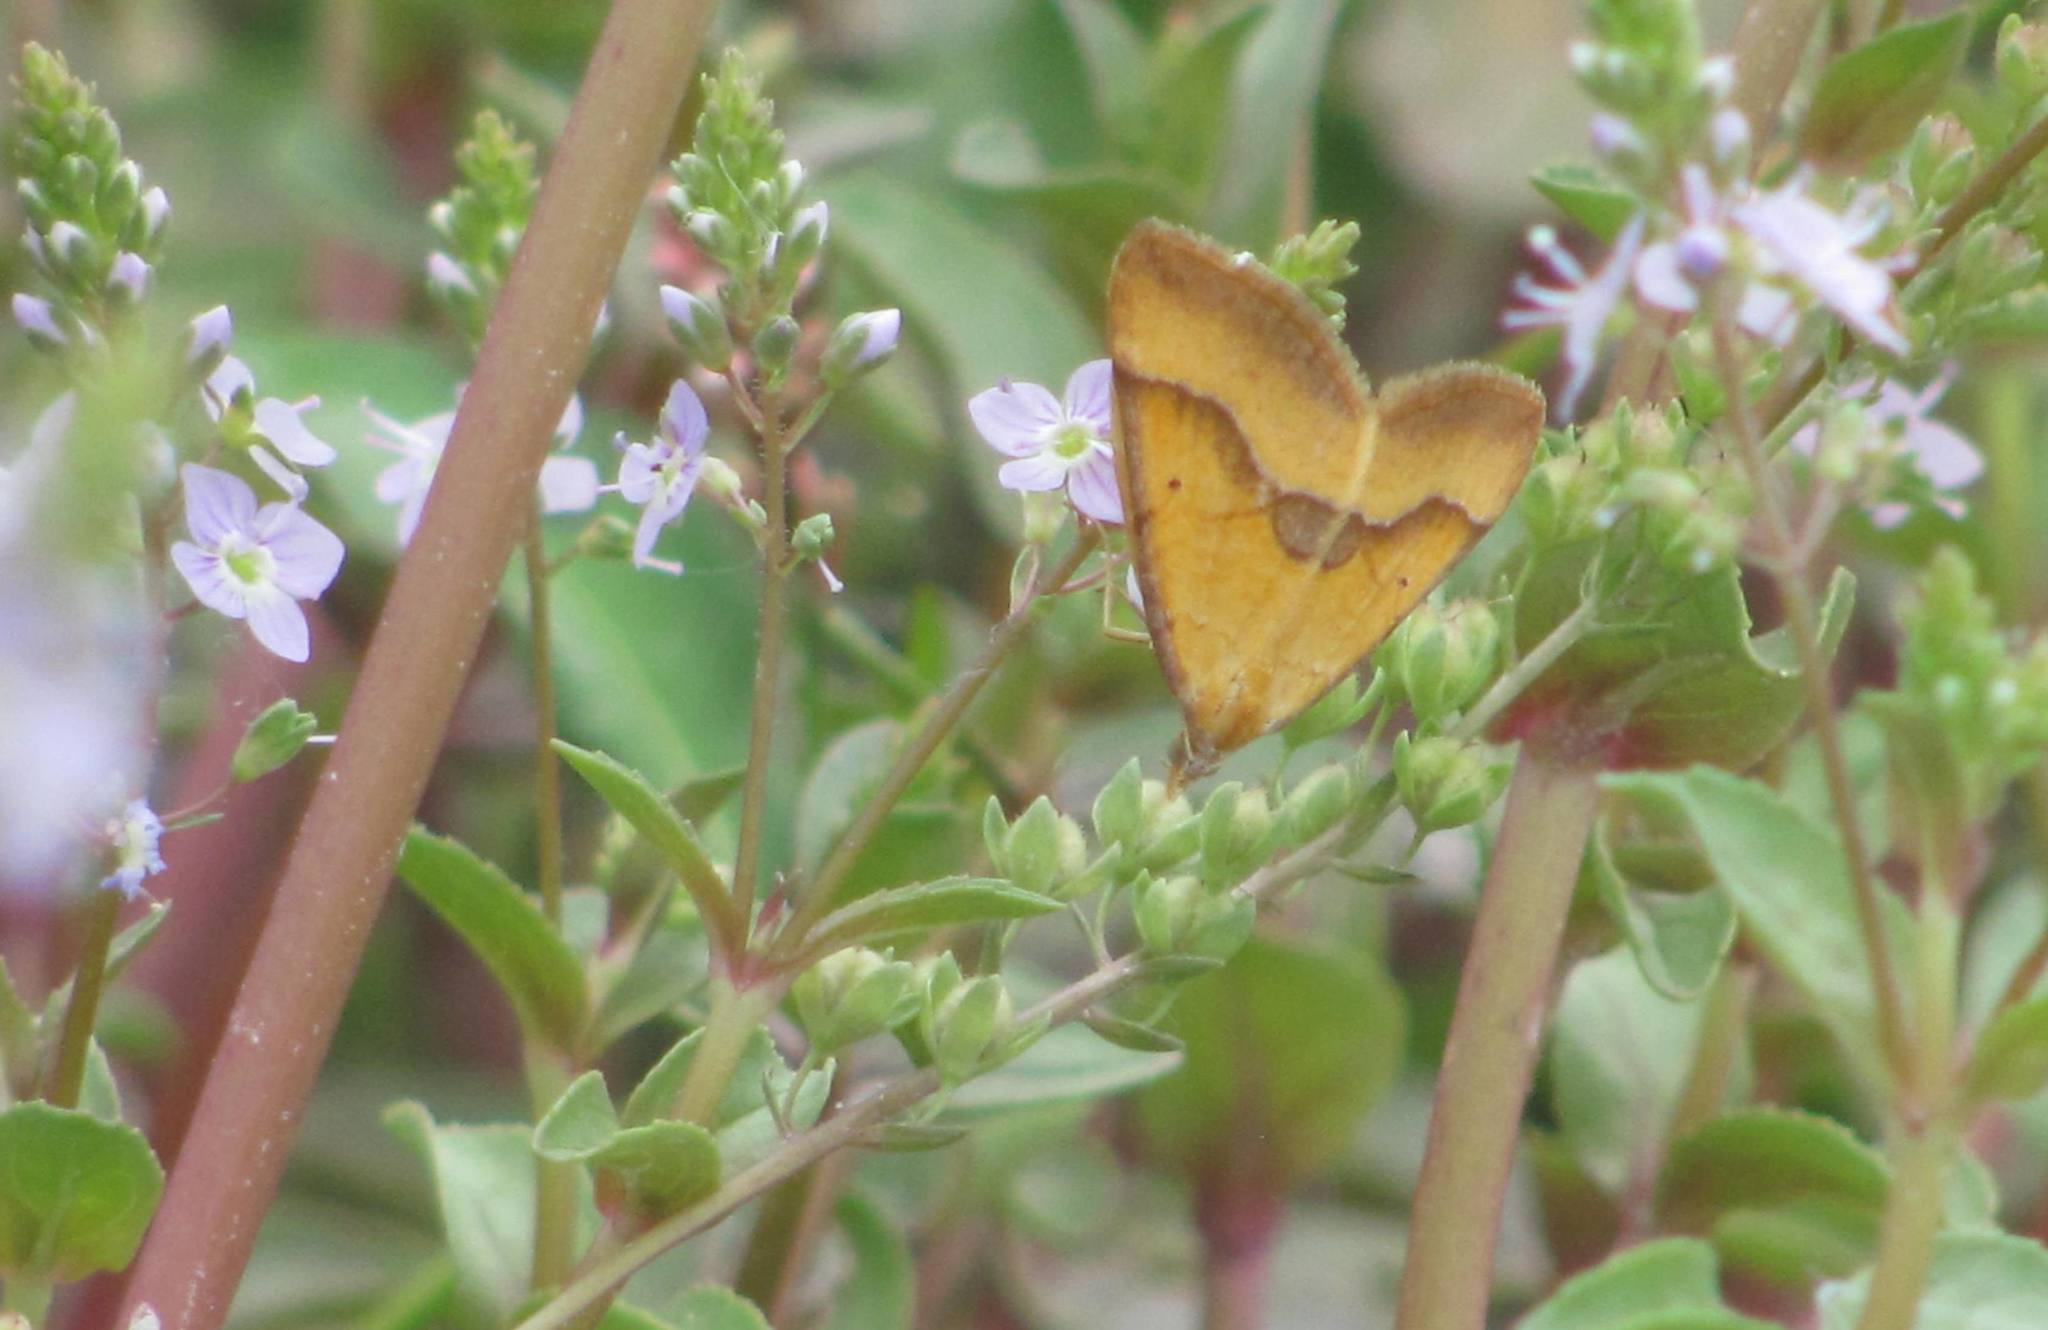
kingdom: Animalia
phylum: Arthropoda
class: Insecta
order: Lepidoptera
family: Geometridae
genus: Anachloris
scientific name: Anachloris subochraria
